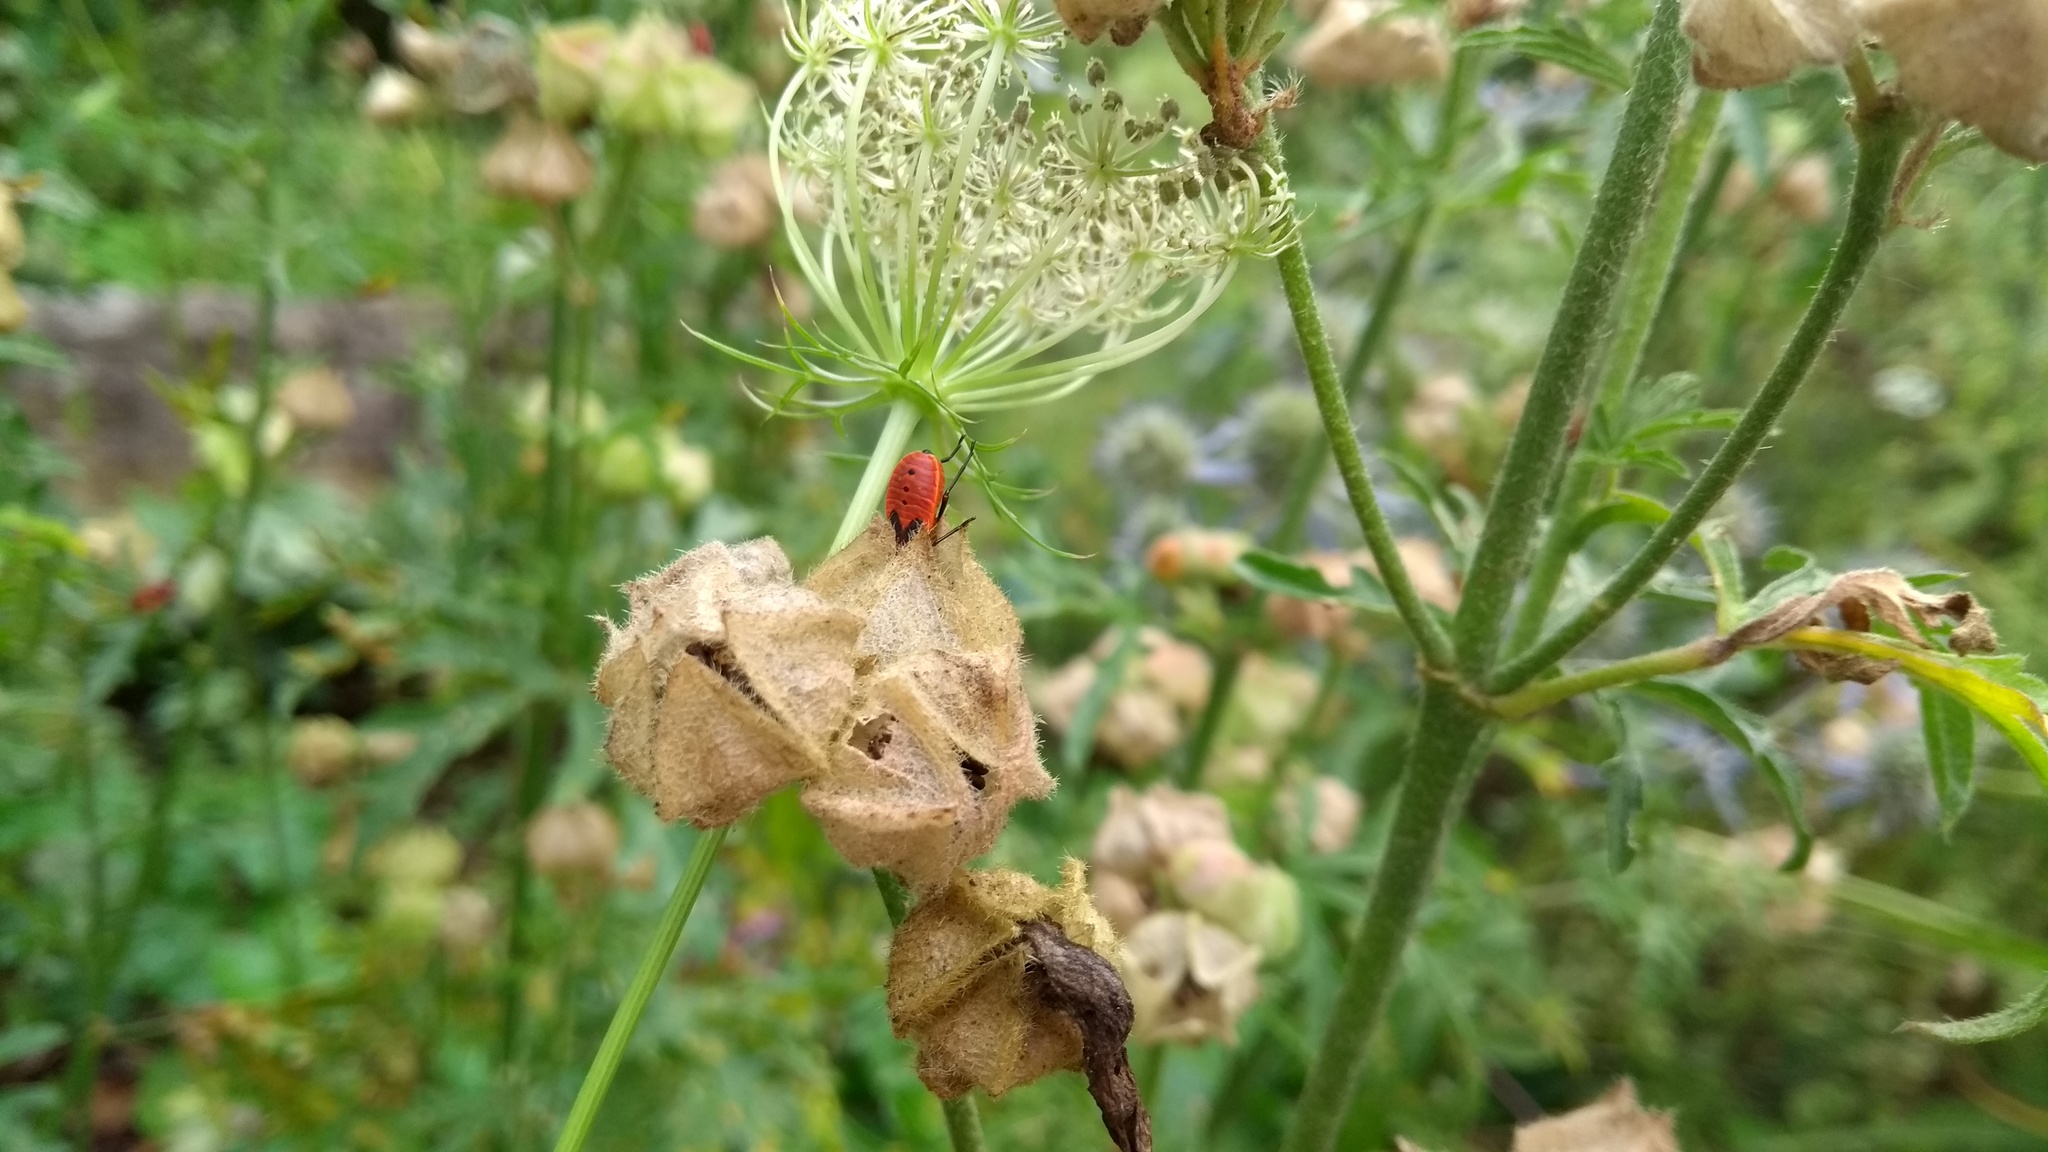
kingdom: Animalia
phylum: Arthropoda
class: Insecta
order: Hemiptera
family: Pyrrhocoridae
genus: Pyrrhocoris
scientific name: Pyrrhocoris apterus
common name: Firebug
